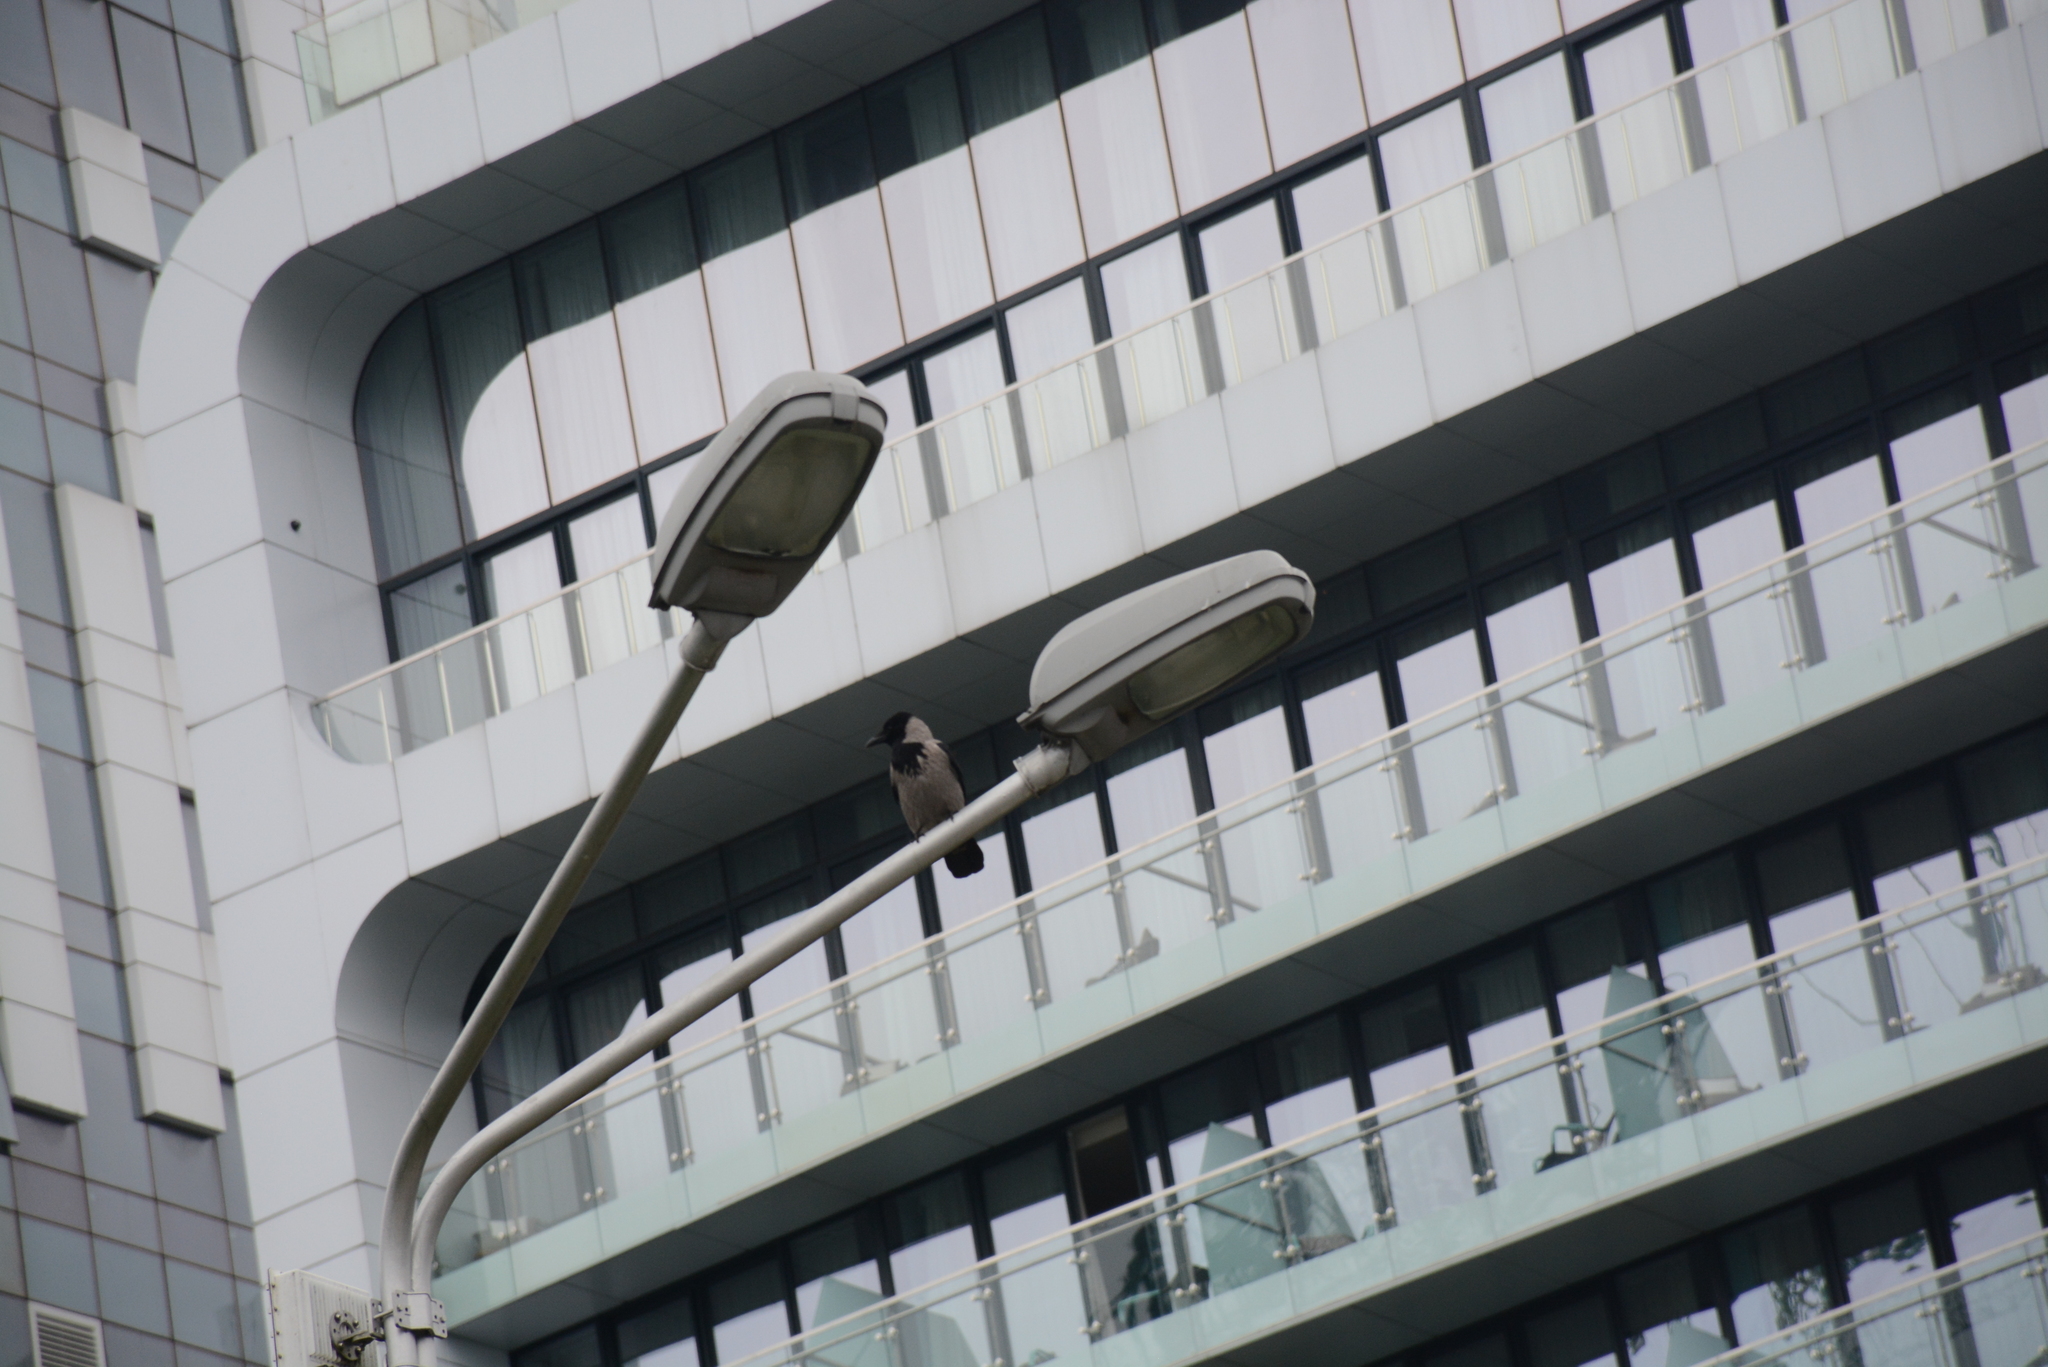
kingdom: Animalia
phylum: Chordata
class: Aves
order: Passeriformes
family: Corvidae
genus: Corvus
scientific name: Corvus cornix
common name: Hooded crow
